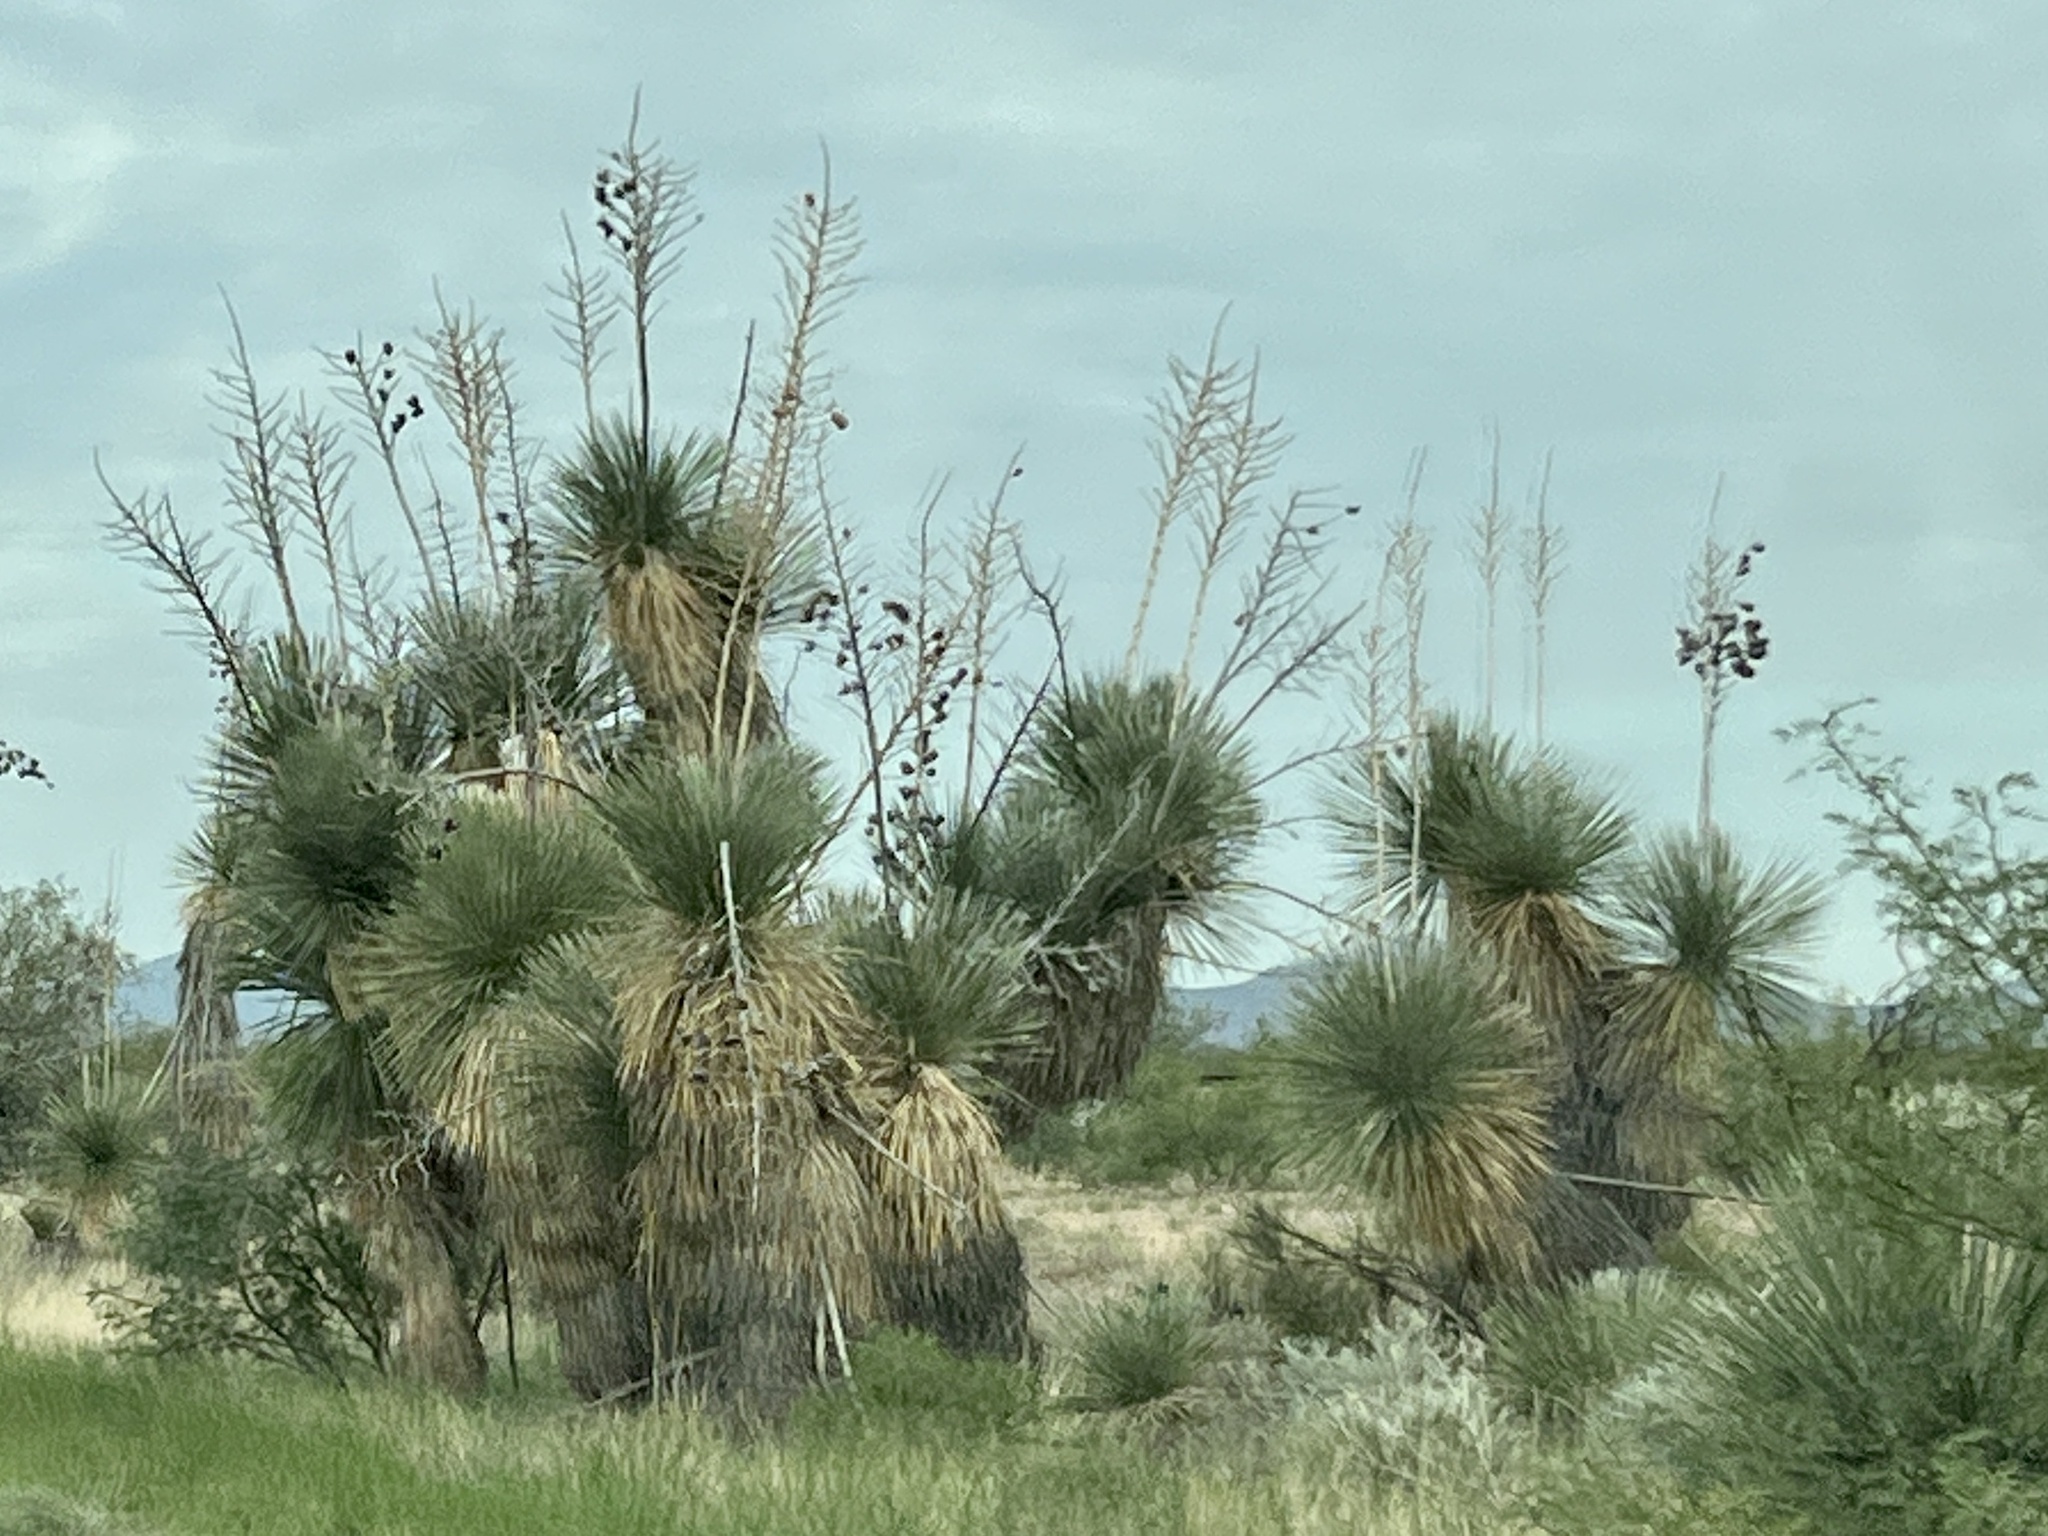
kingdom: Plantae
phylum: Tracheophyta
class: Liliopsida
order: Asparagales
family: Asparagaceae
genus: Yucca
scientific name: Yucca elata
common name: Palmella
